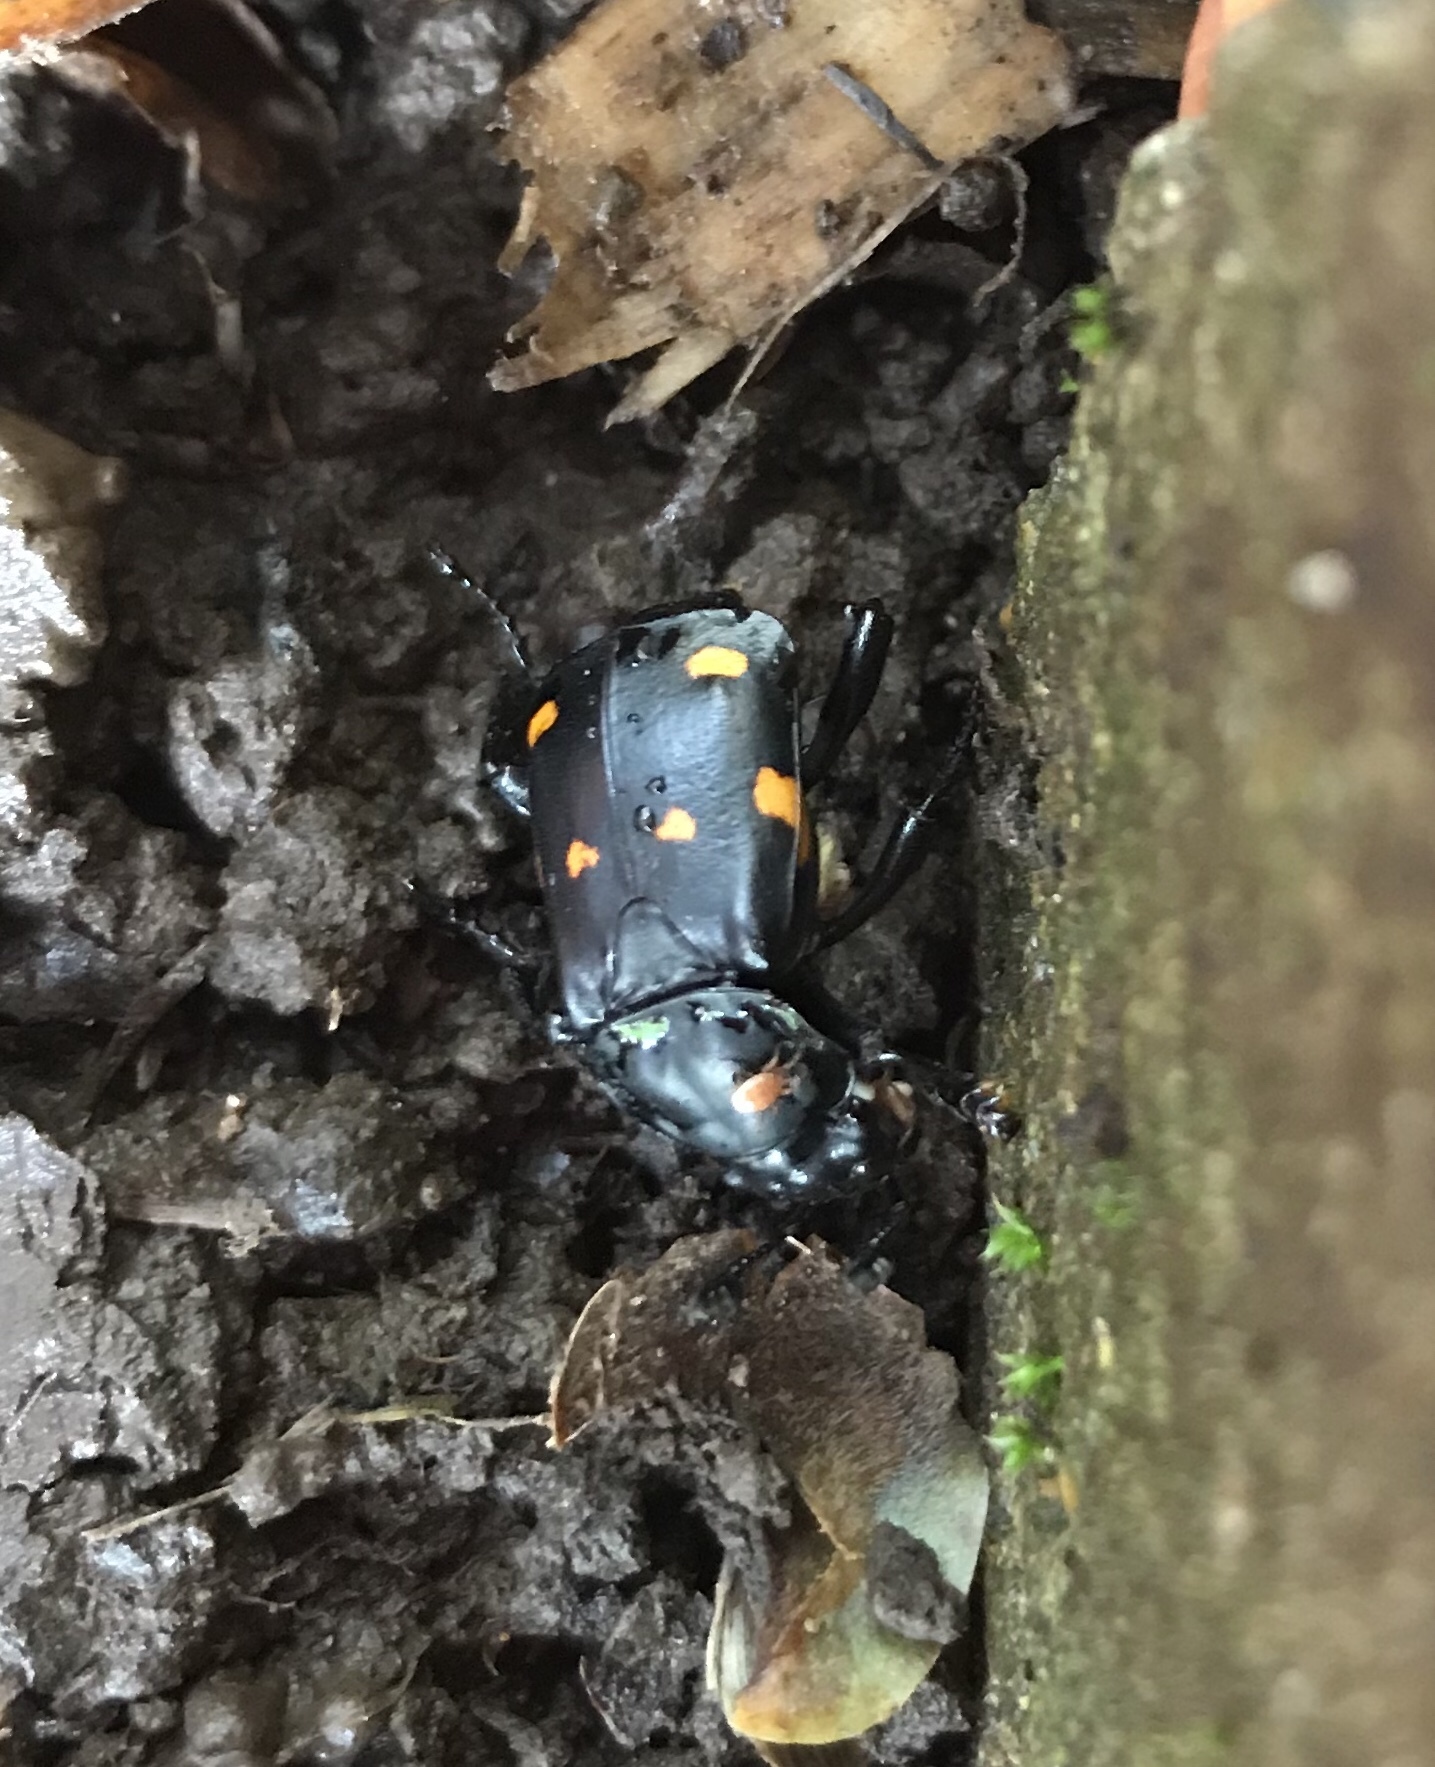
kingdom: Animalia
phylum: Arthropoda
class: Insecta
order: Coleoptera
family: Staphylinidae
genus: Nicrophorus
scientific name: Nicrophorus defodiens
